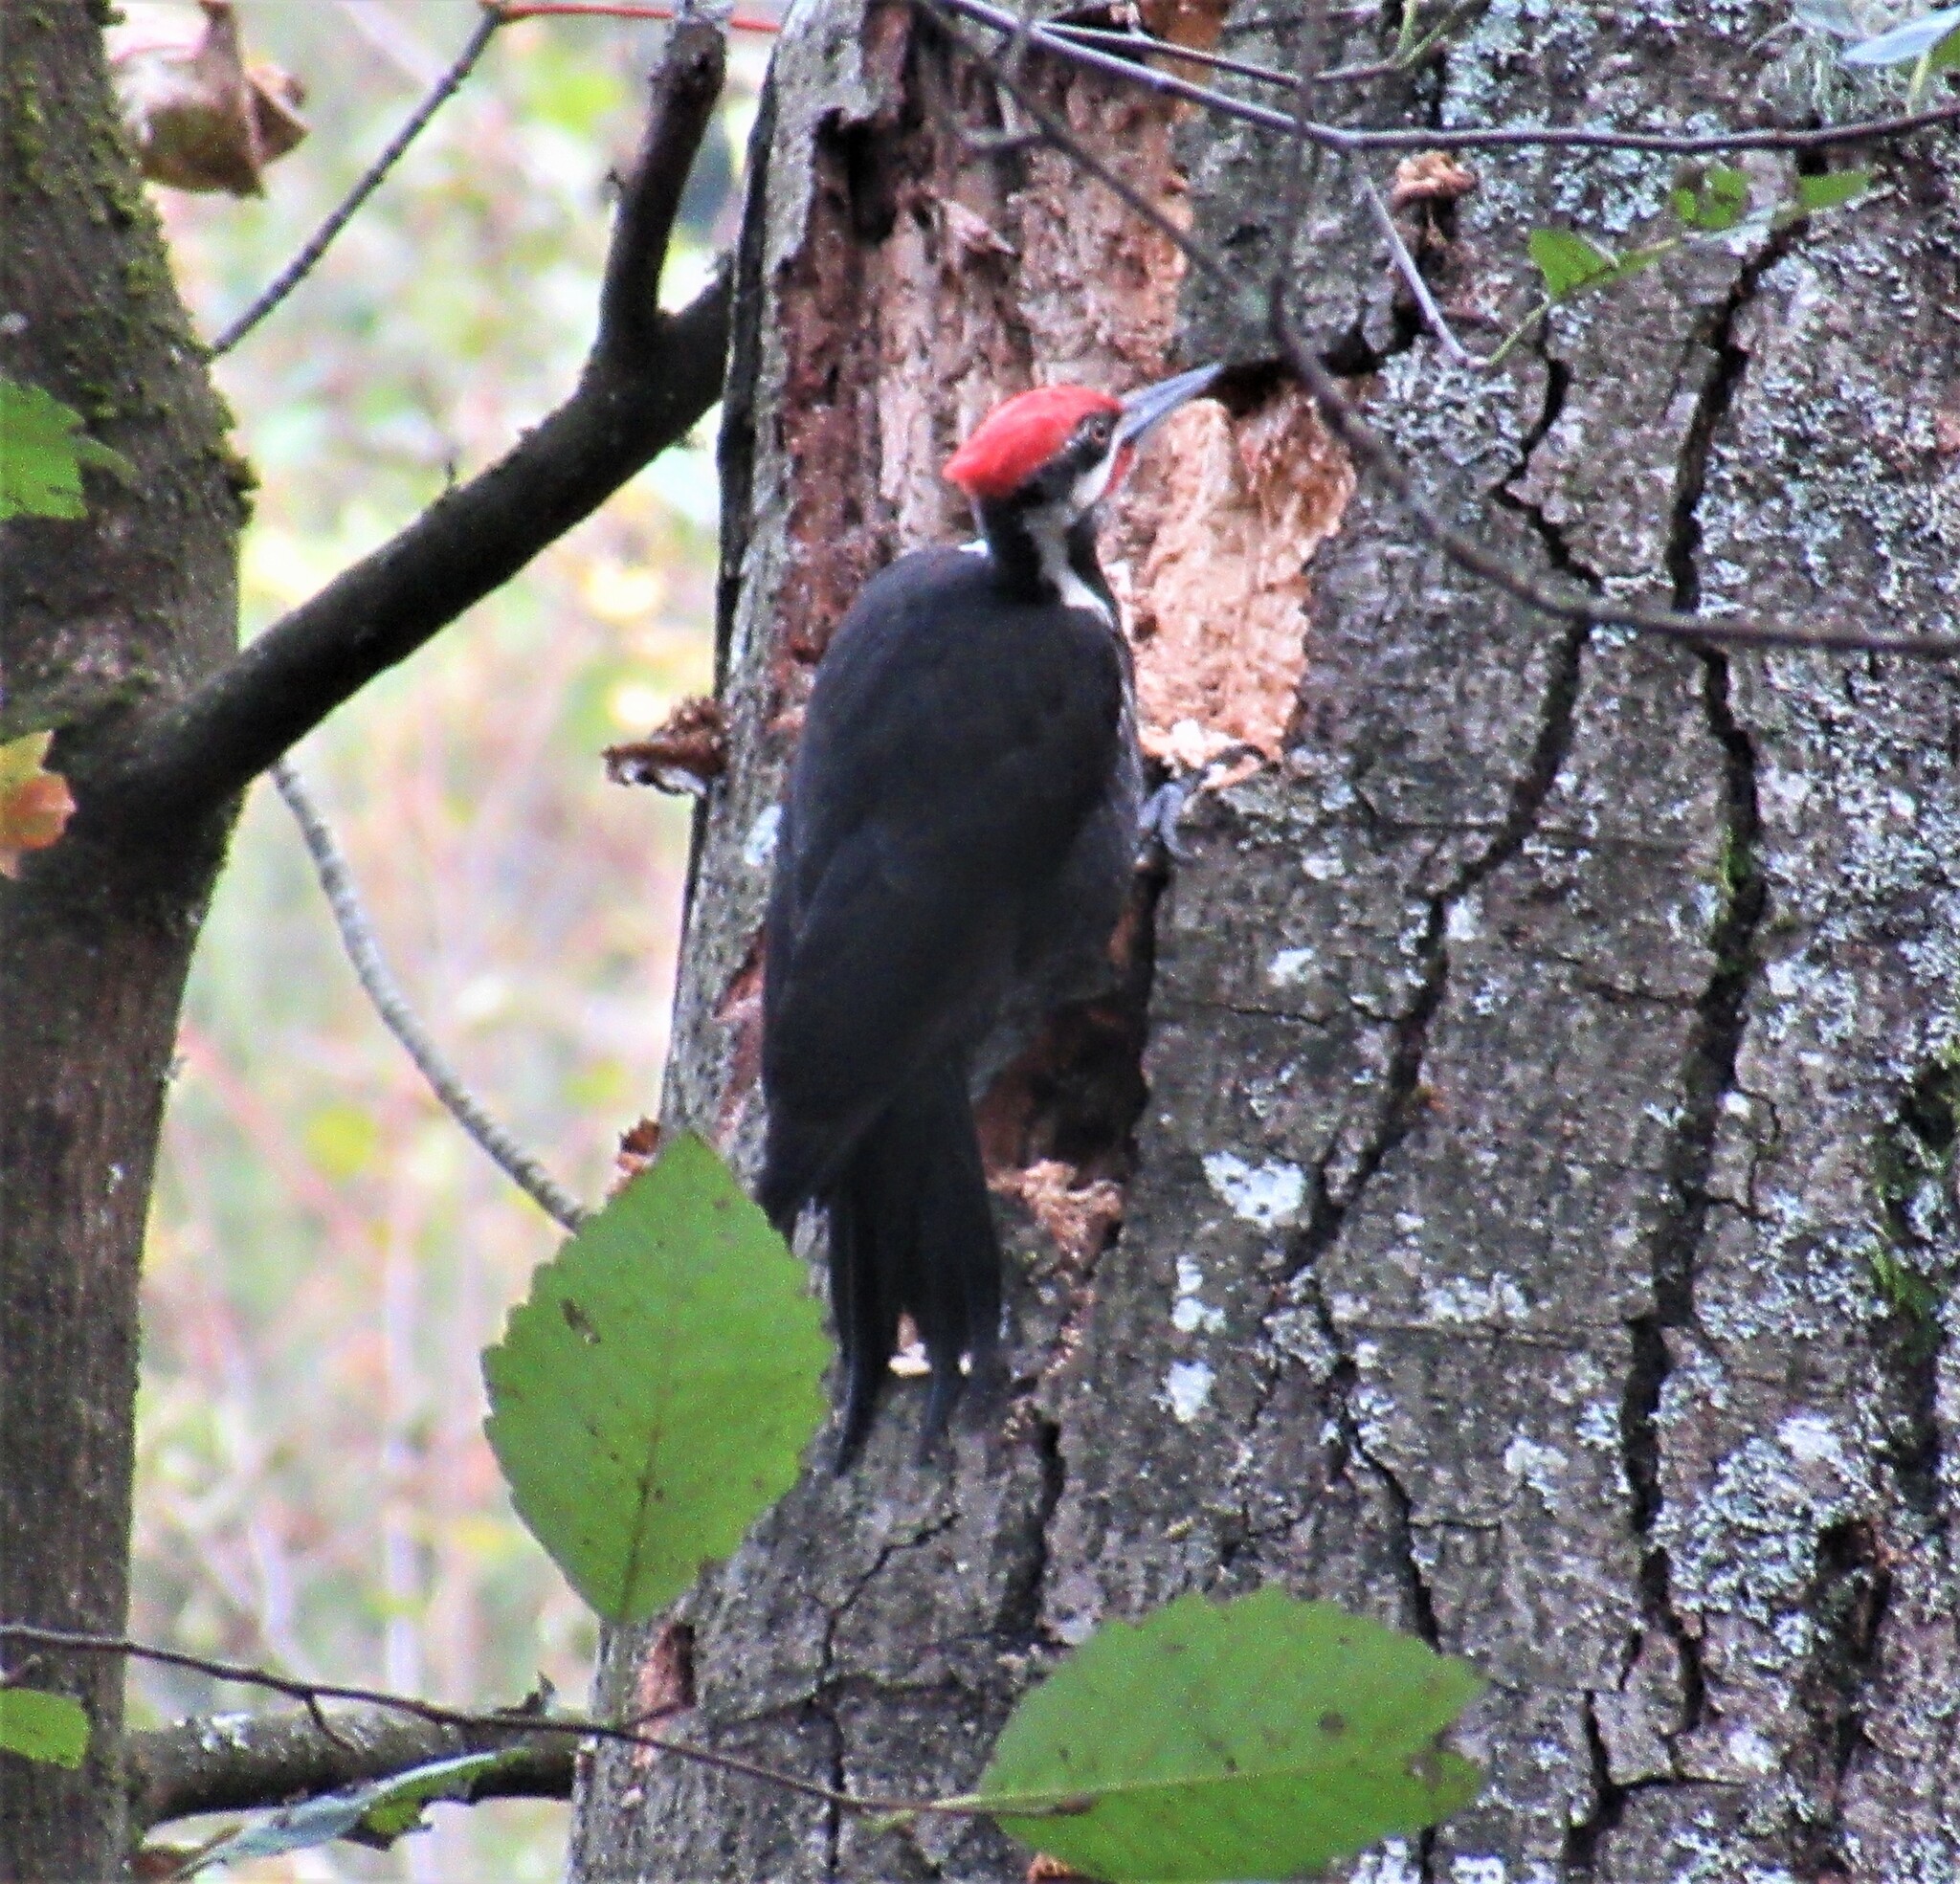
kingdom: Animalia
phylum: Chordata
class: Aves
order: Piciformes
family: Picidae
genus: Dryocopus
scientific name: Dryocopus pileatus
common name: Pileated woodpecker
